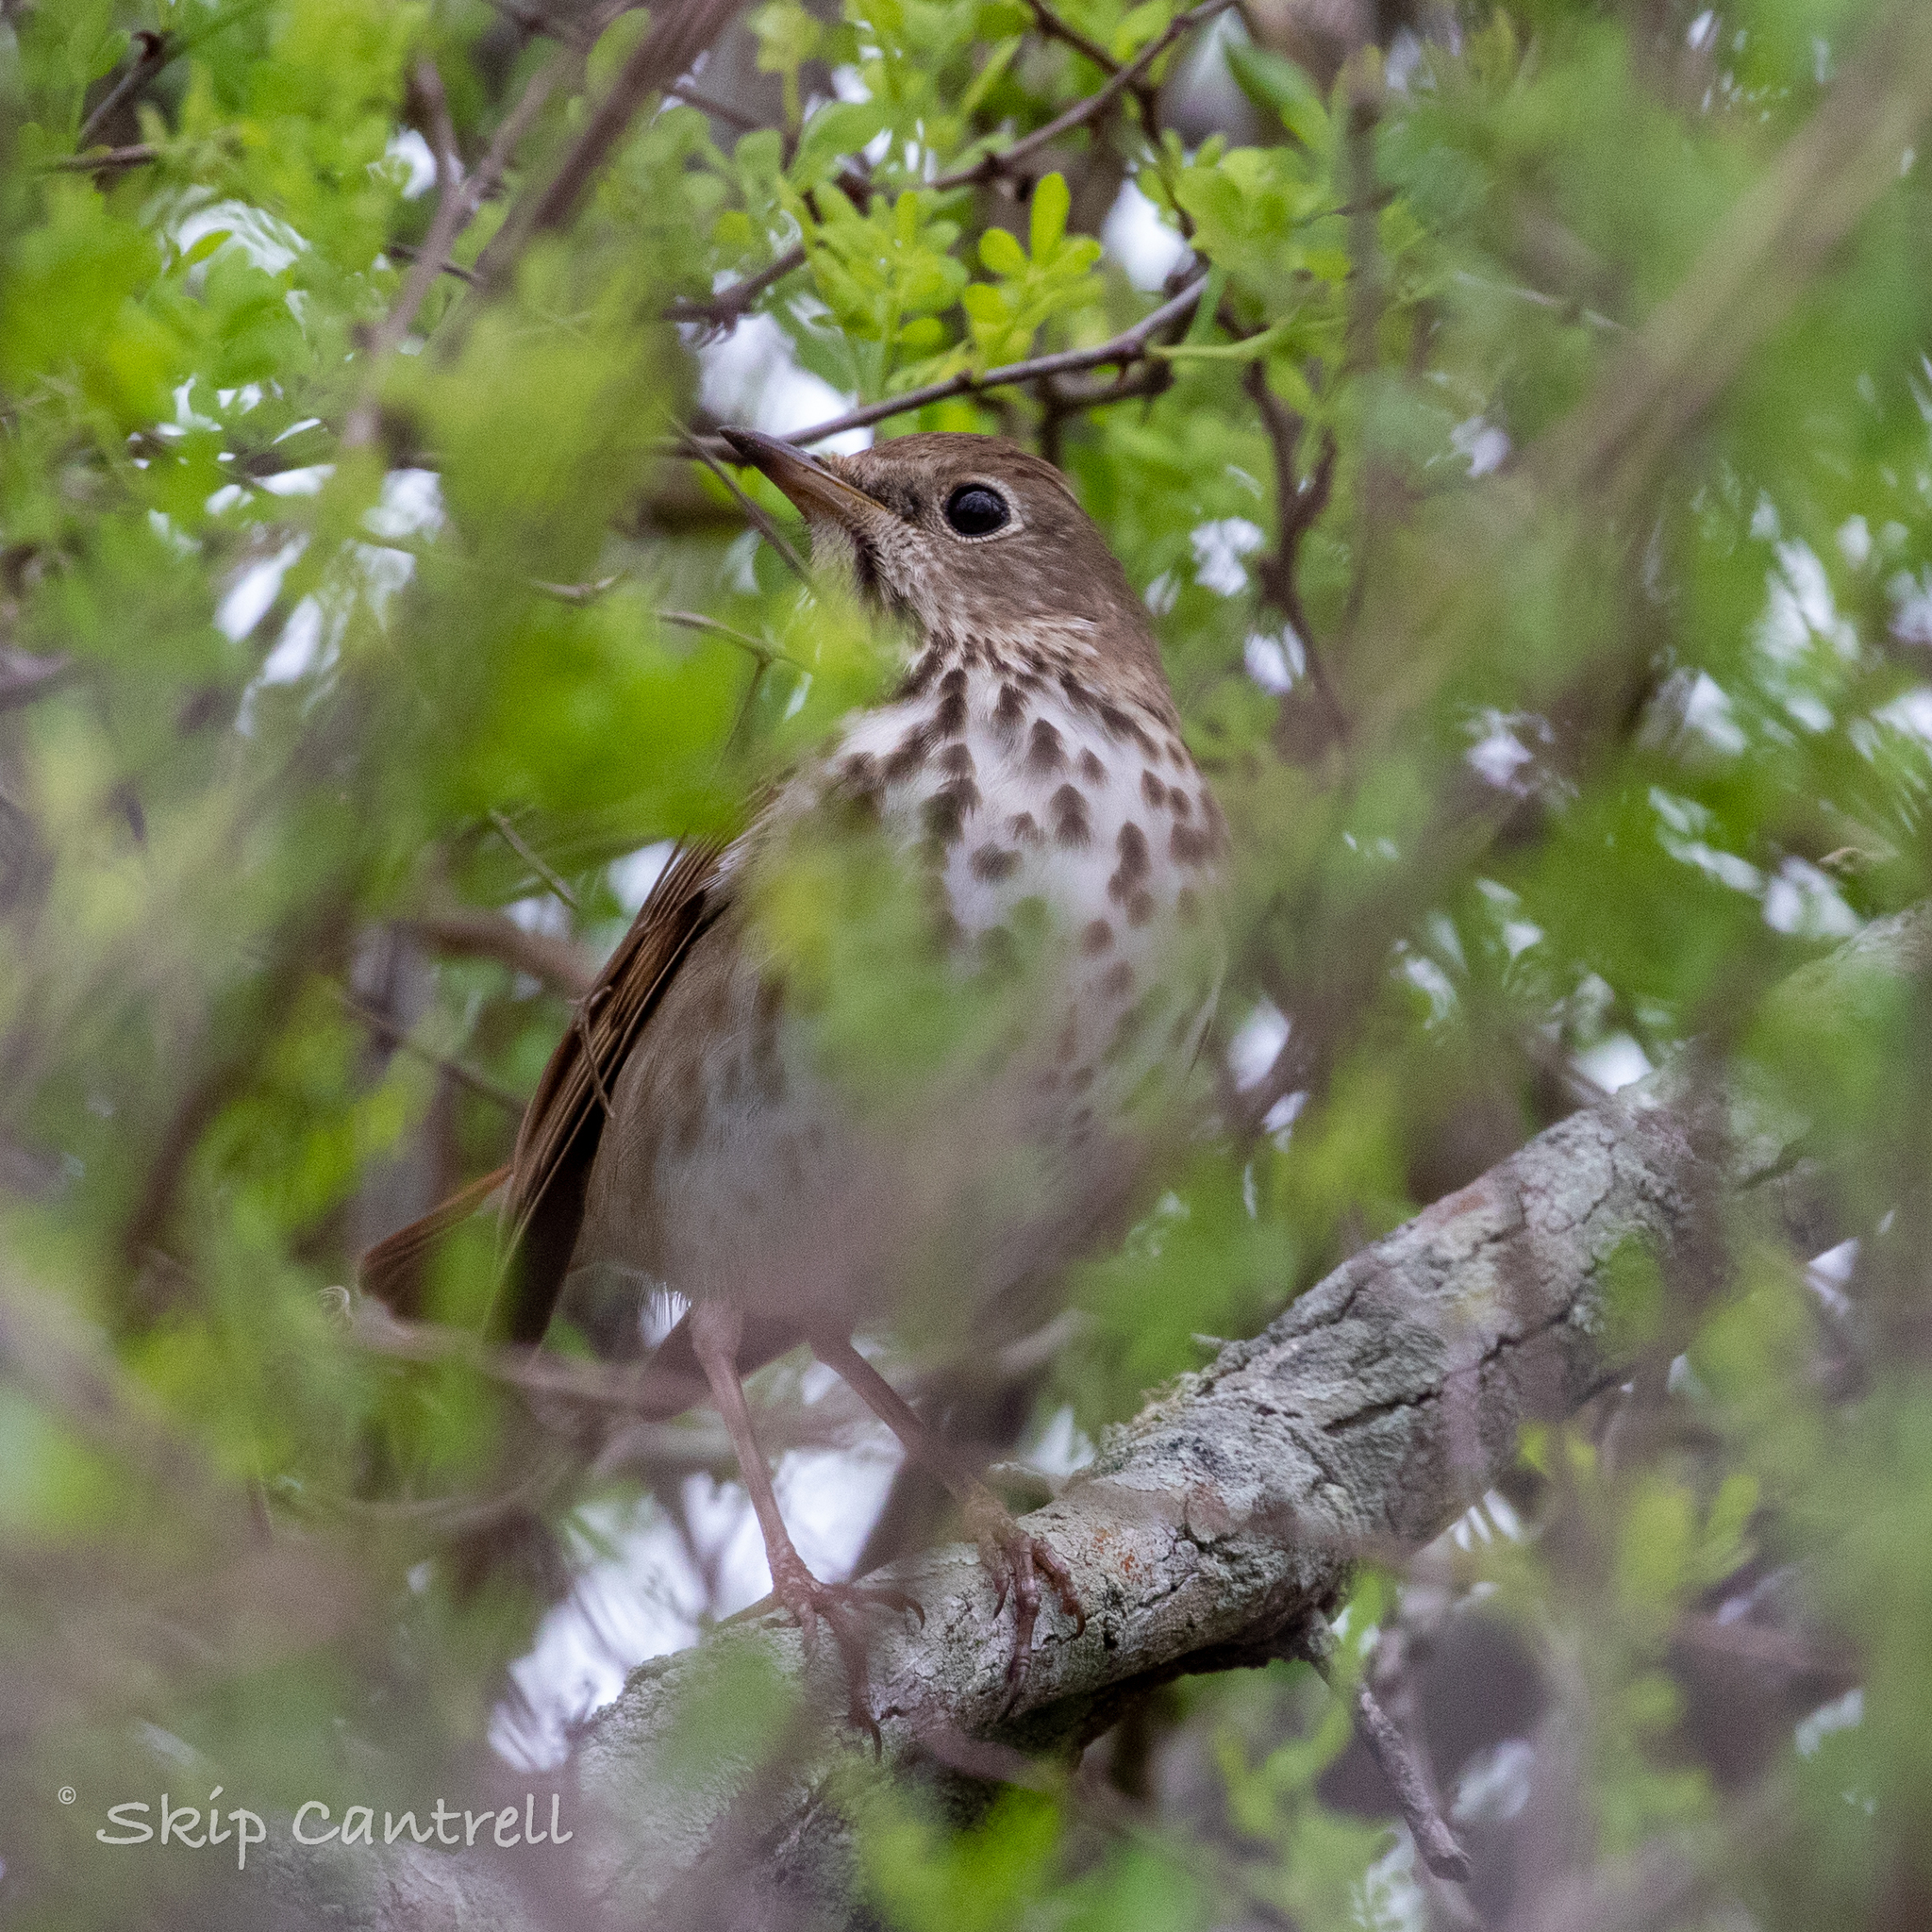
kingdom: Animalia
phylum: Chordata
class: Aves
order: Passeriformes
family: Turdidae
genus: Catharus
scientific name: Catharus guttatus
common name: Hermit thrush
